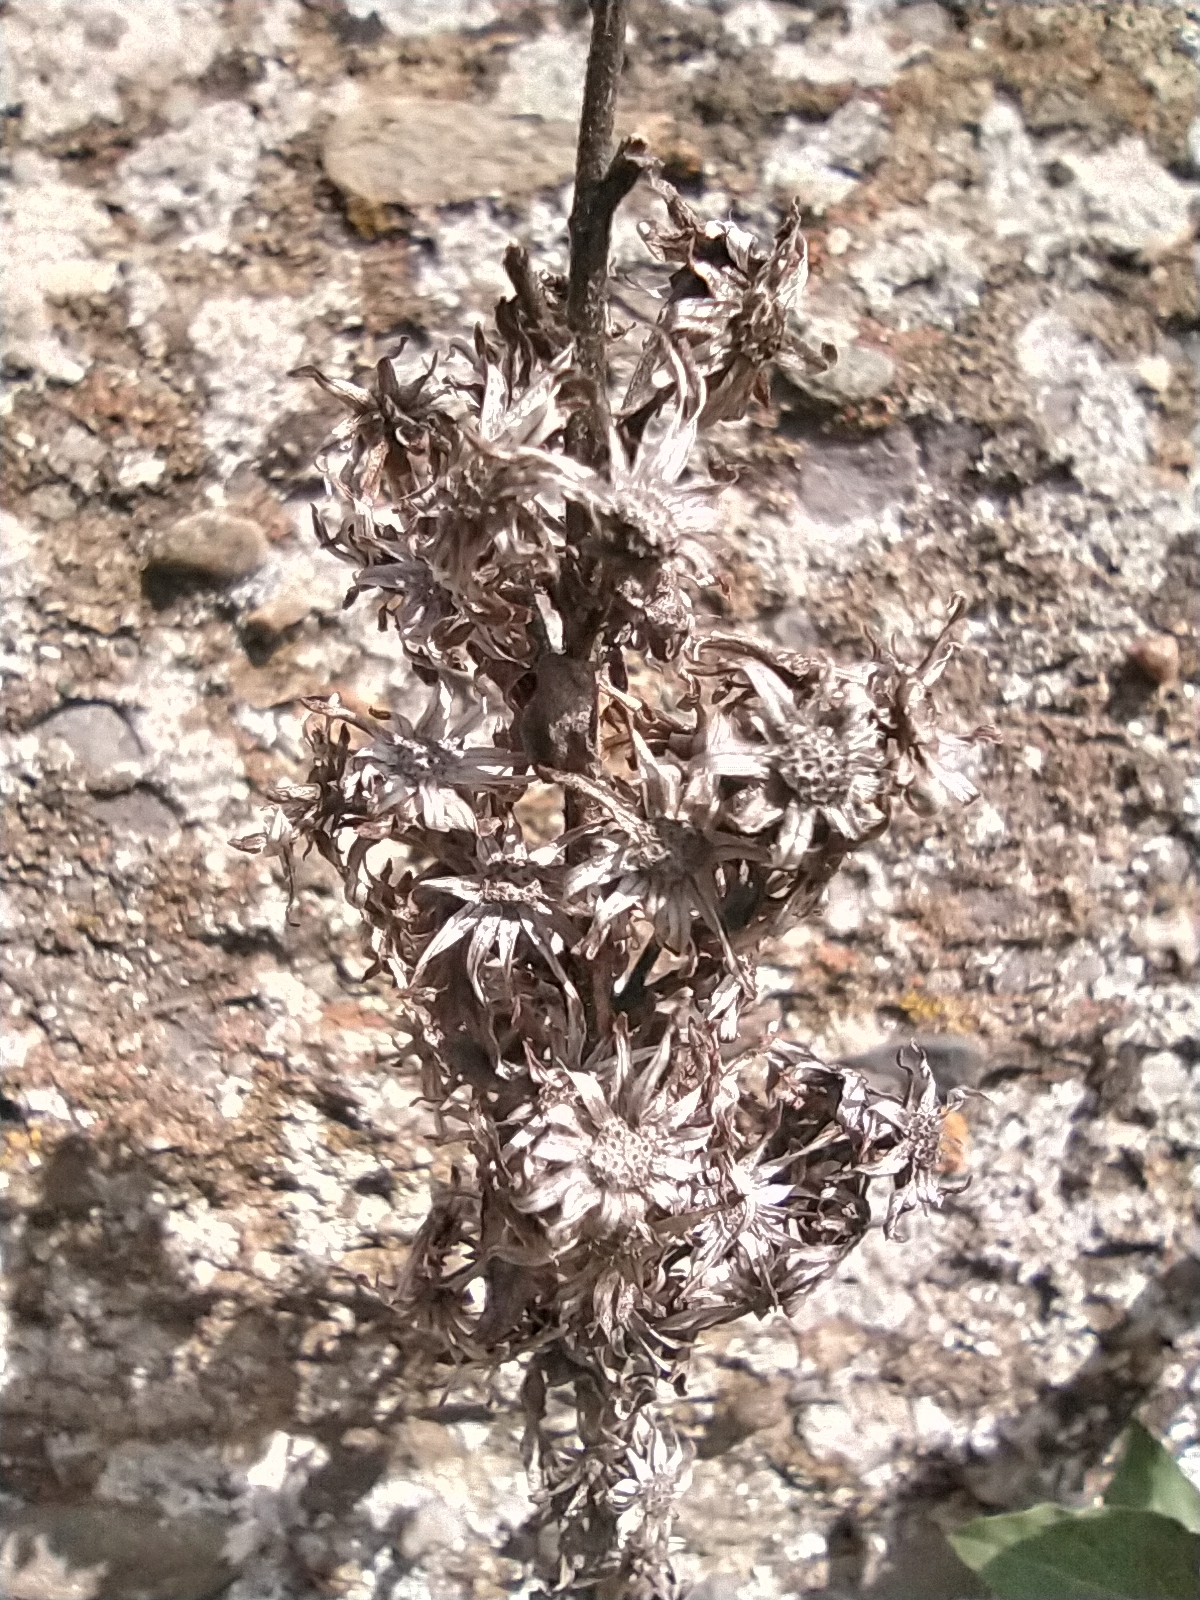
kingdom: Plantae
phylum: Tracheophyta
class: Magnoliopsida
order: Asterales
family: Asteraceae
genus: Solidago
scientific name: Solidago virgaurea
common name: Goldenrod
